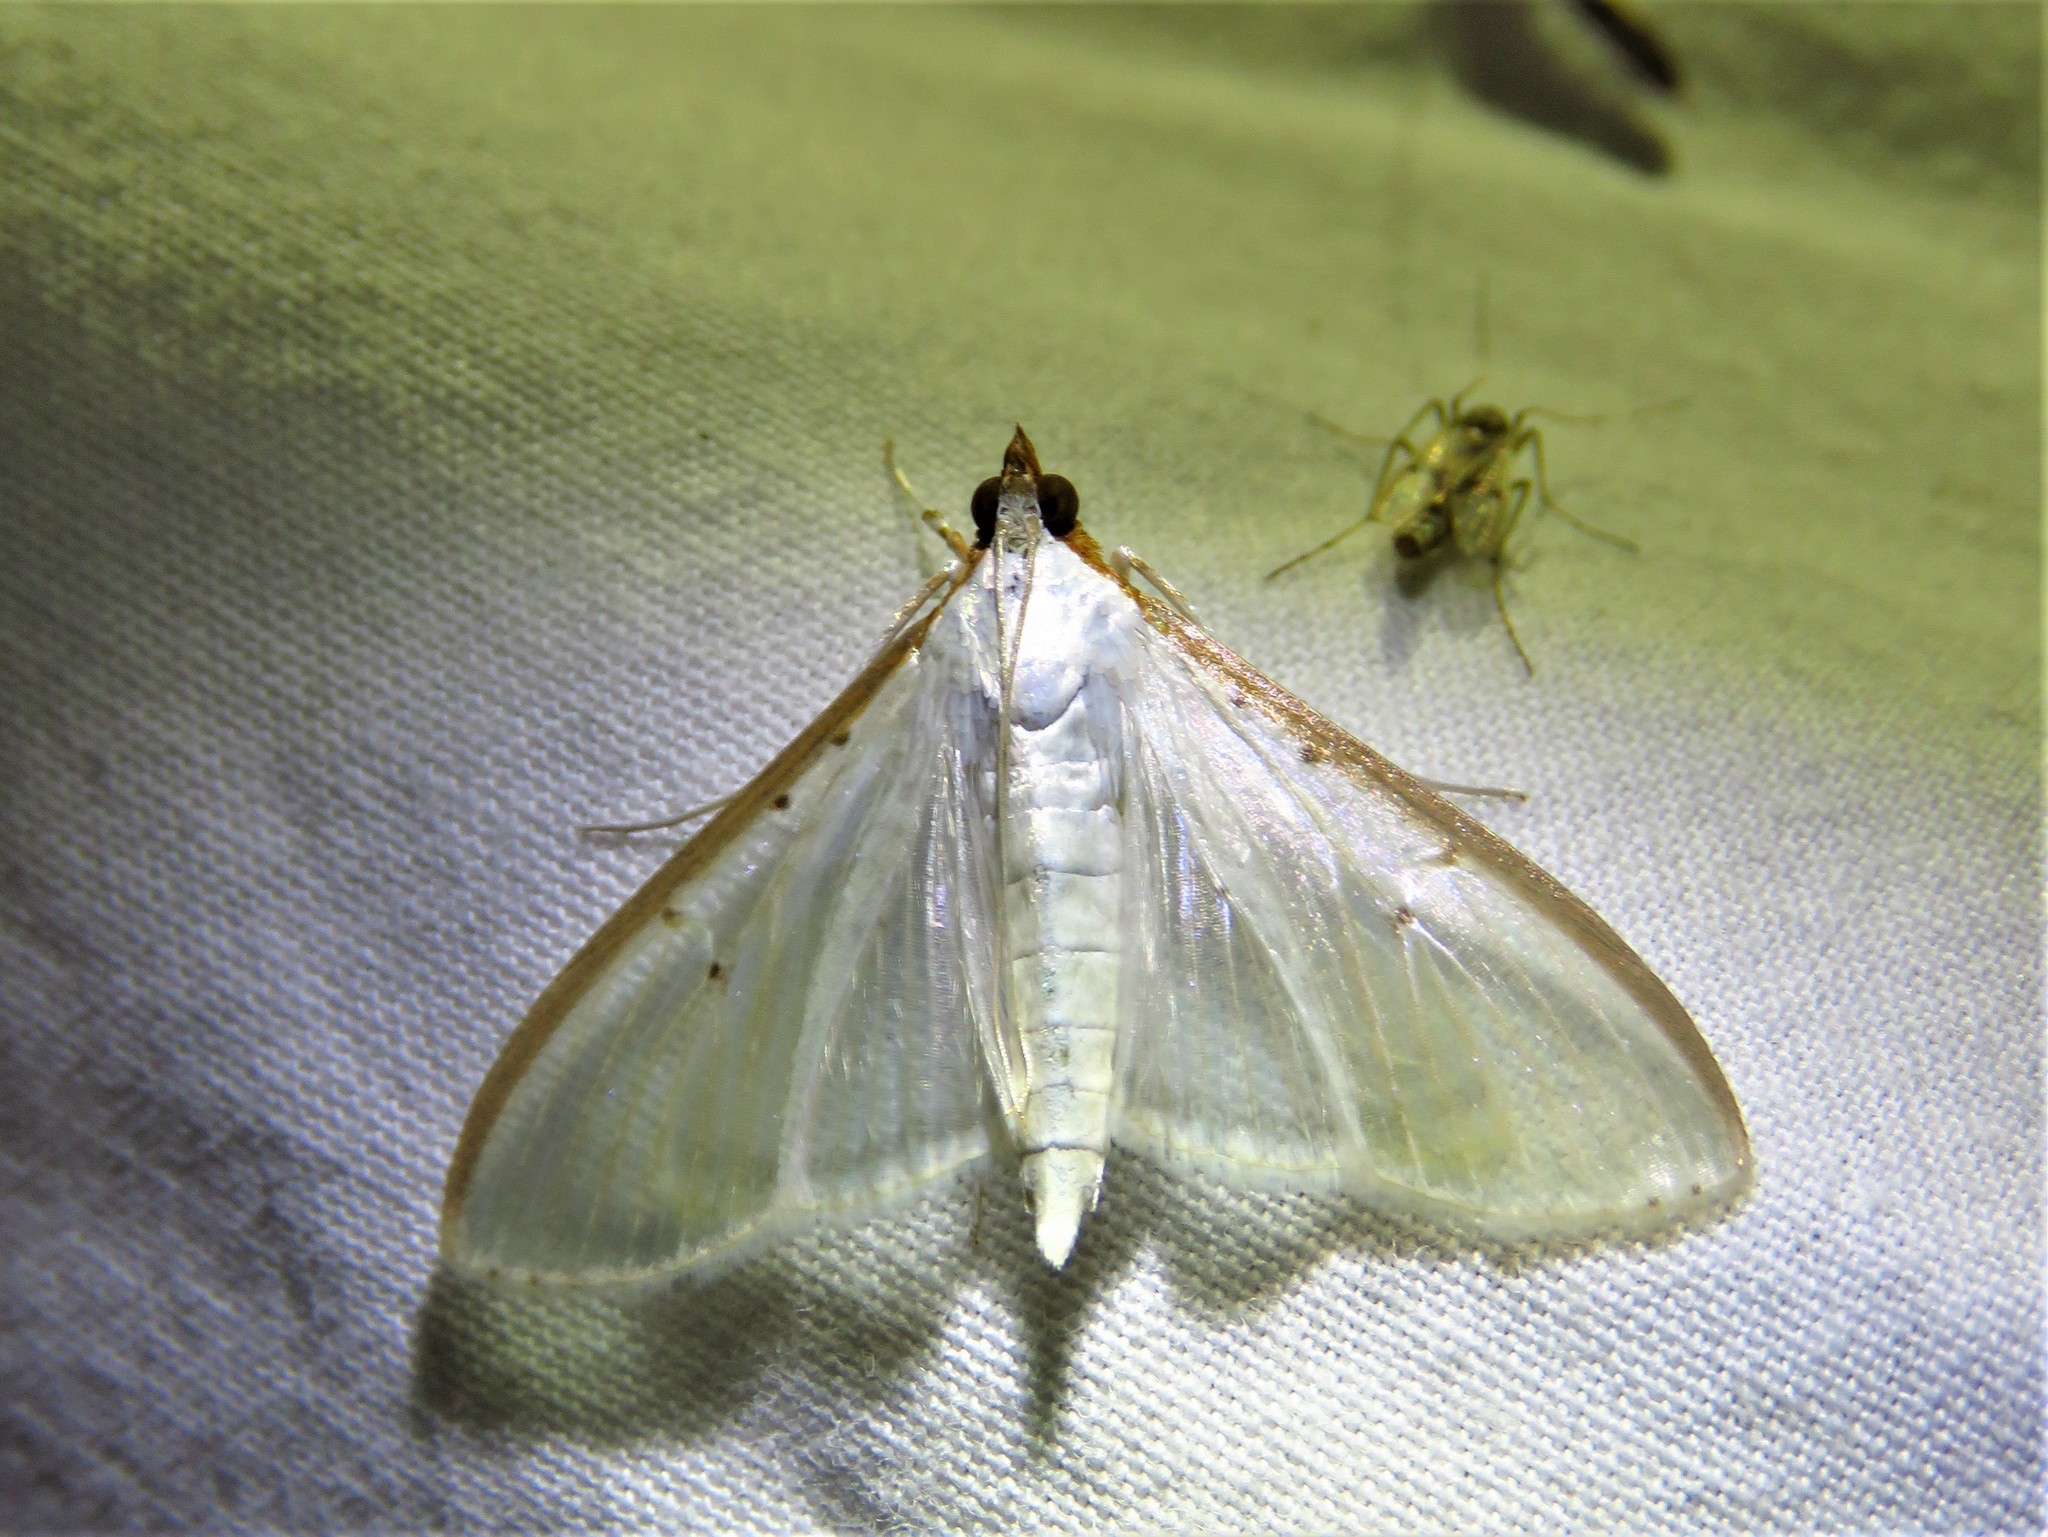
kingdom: Animalia
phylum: Arthropoda
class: Insecta
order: Lepidoptera
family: Crambidae
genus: Palpita
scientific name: Palpita quadristigmalis
